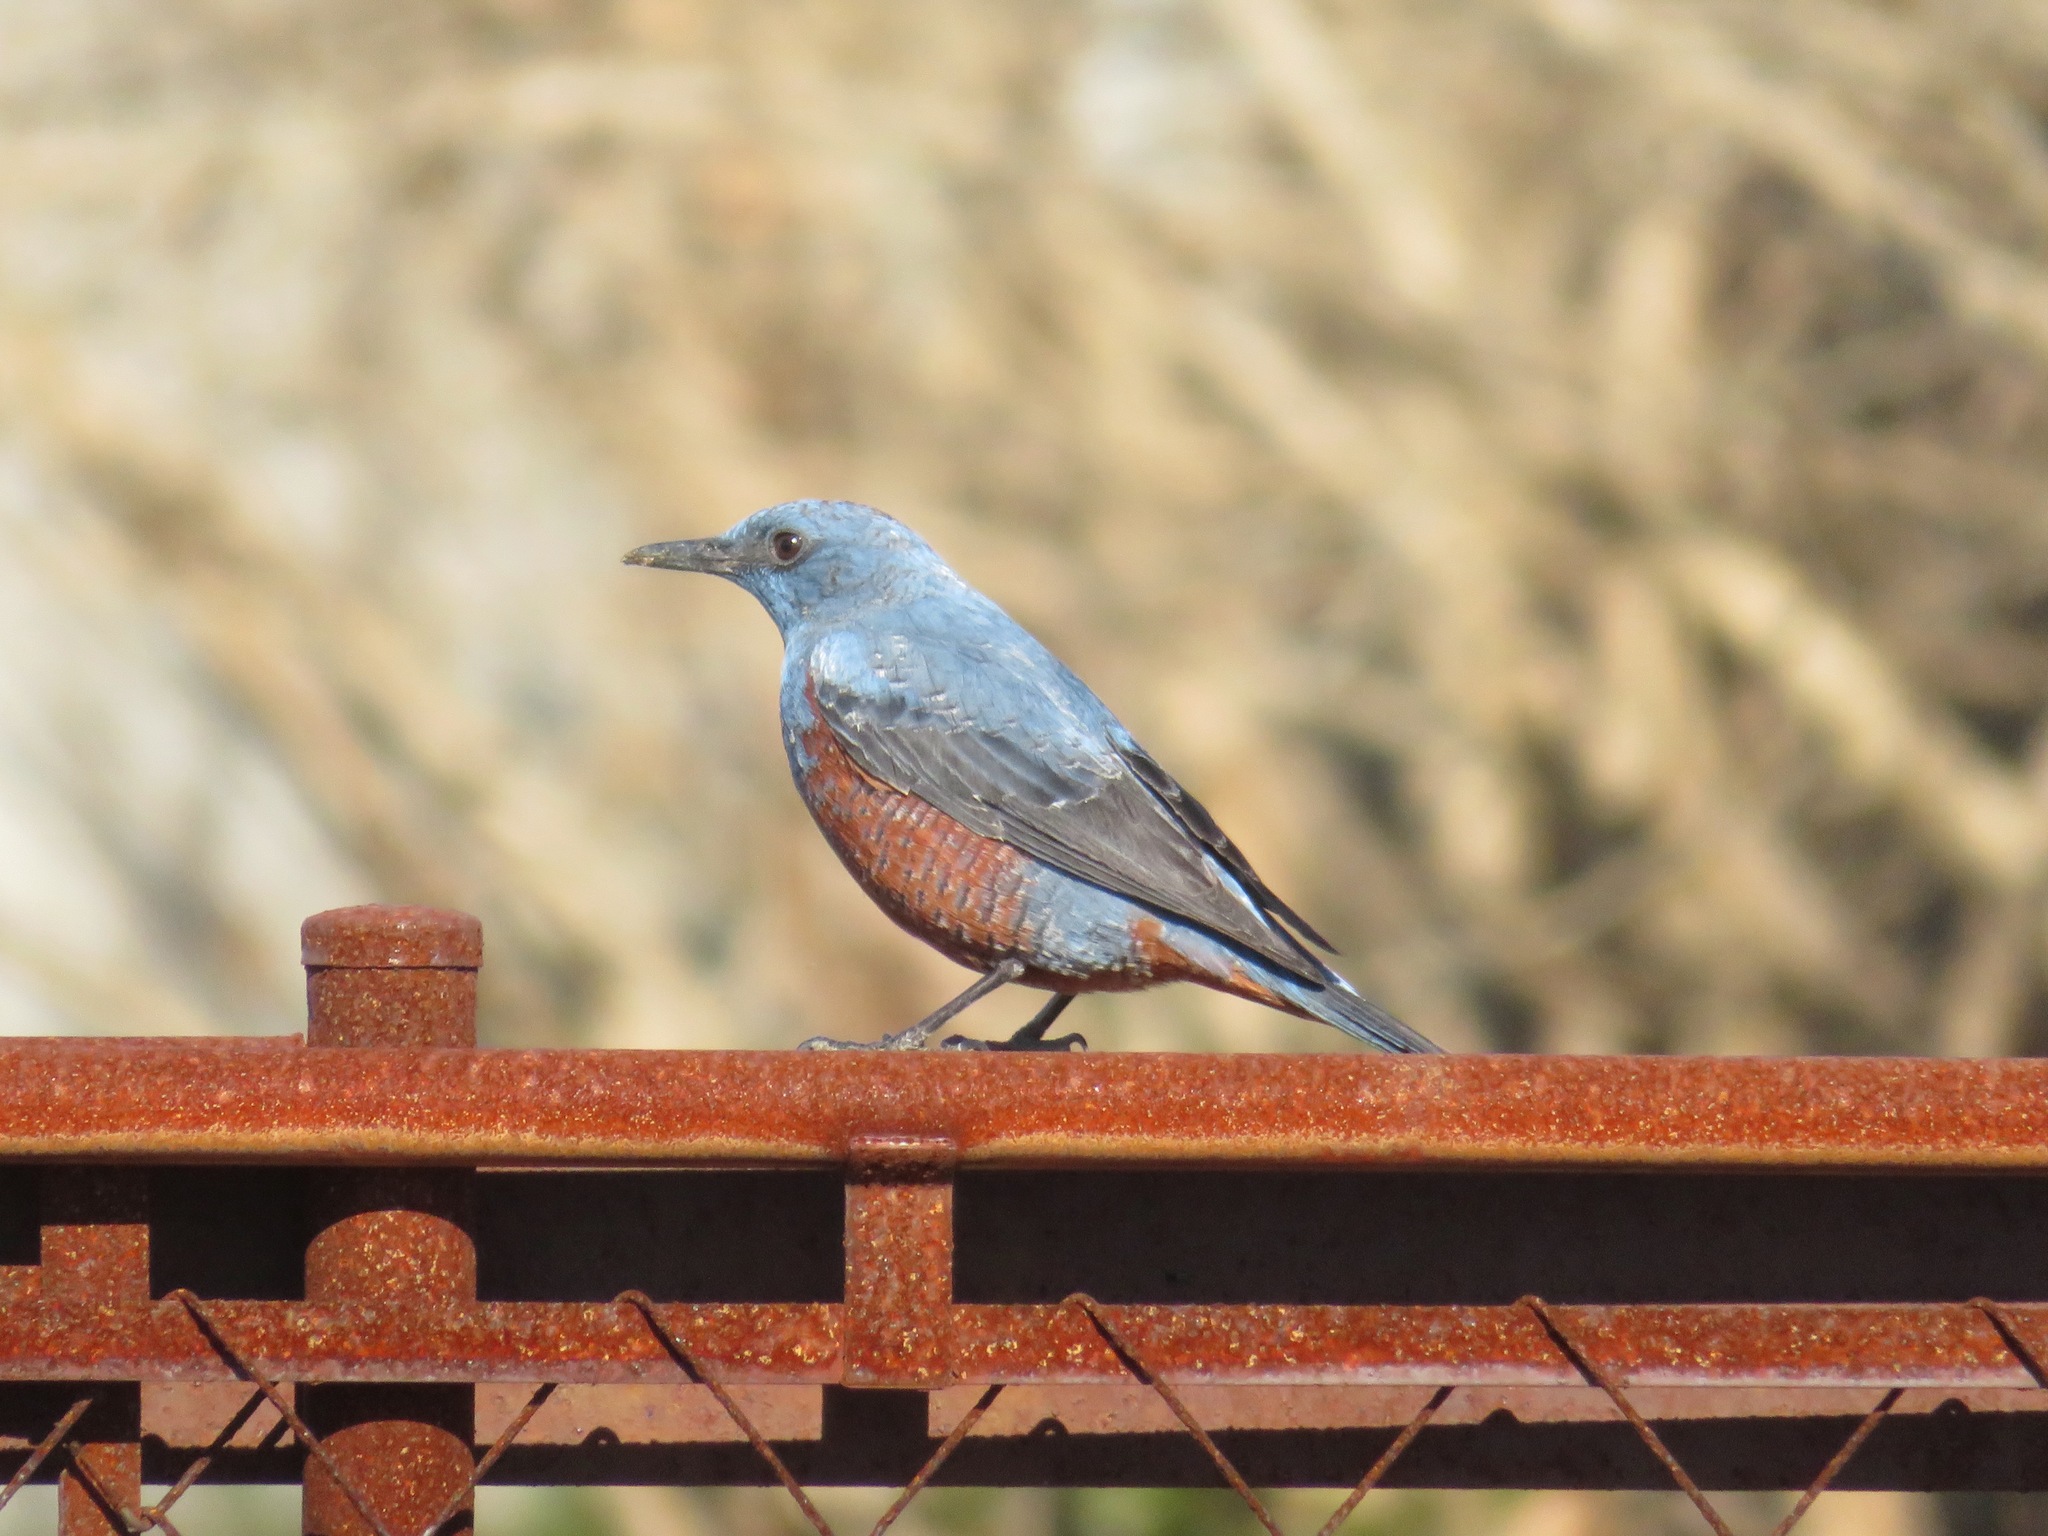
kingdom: Animalia
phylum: Chordata
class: Aves
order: Passeriformes
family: Muscicapidae
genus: Monticola
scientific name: Monticola solitarius
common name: Blue rock thrush
